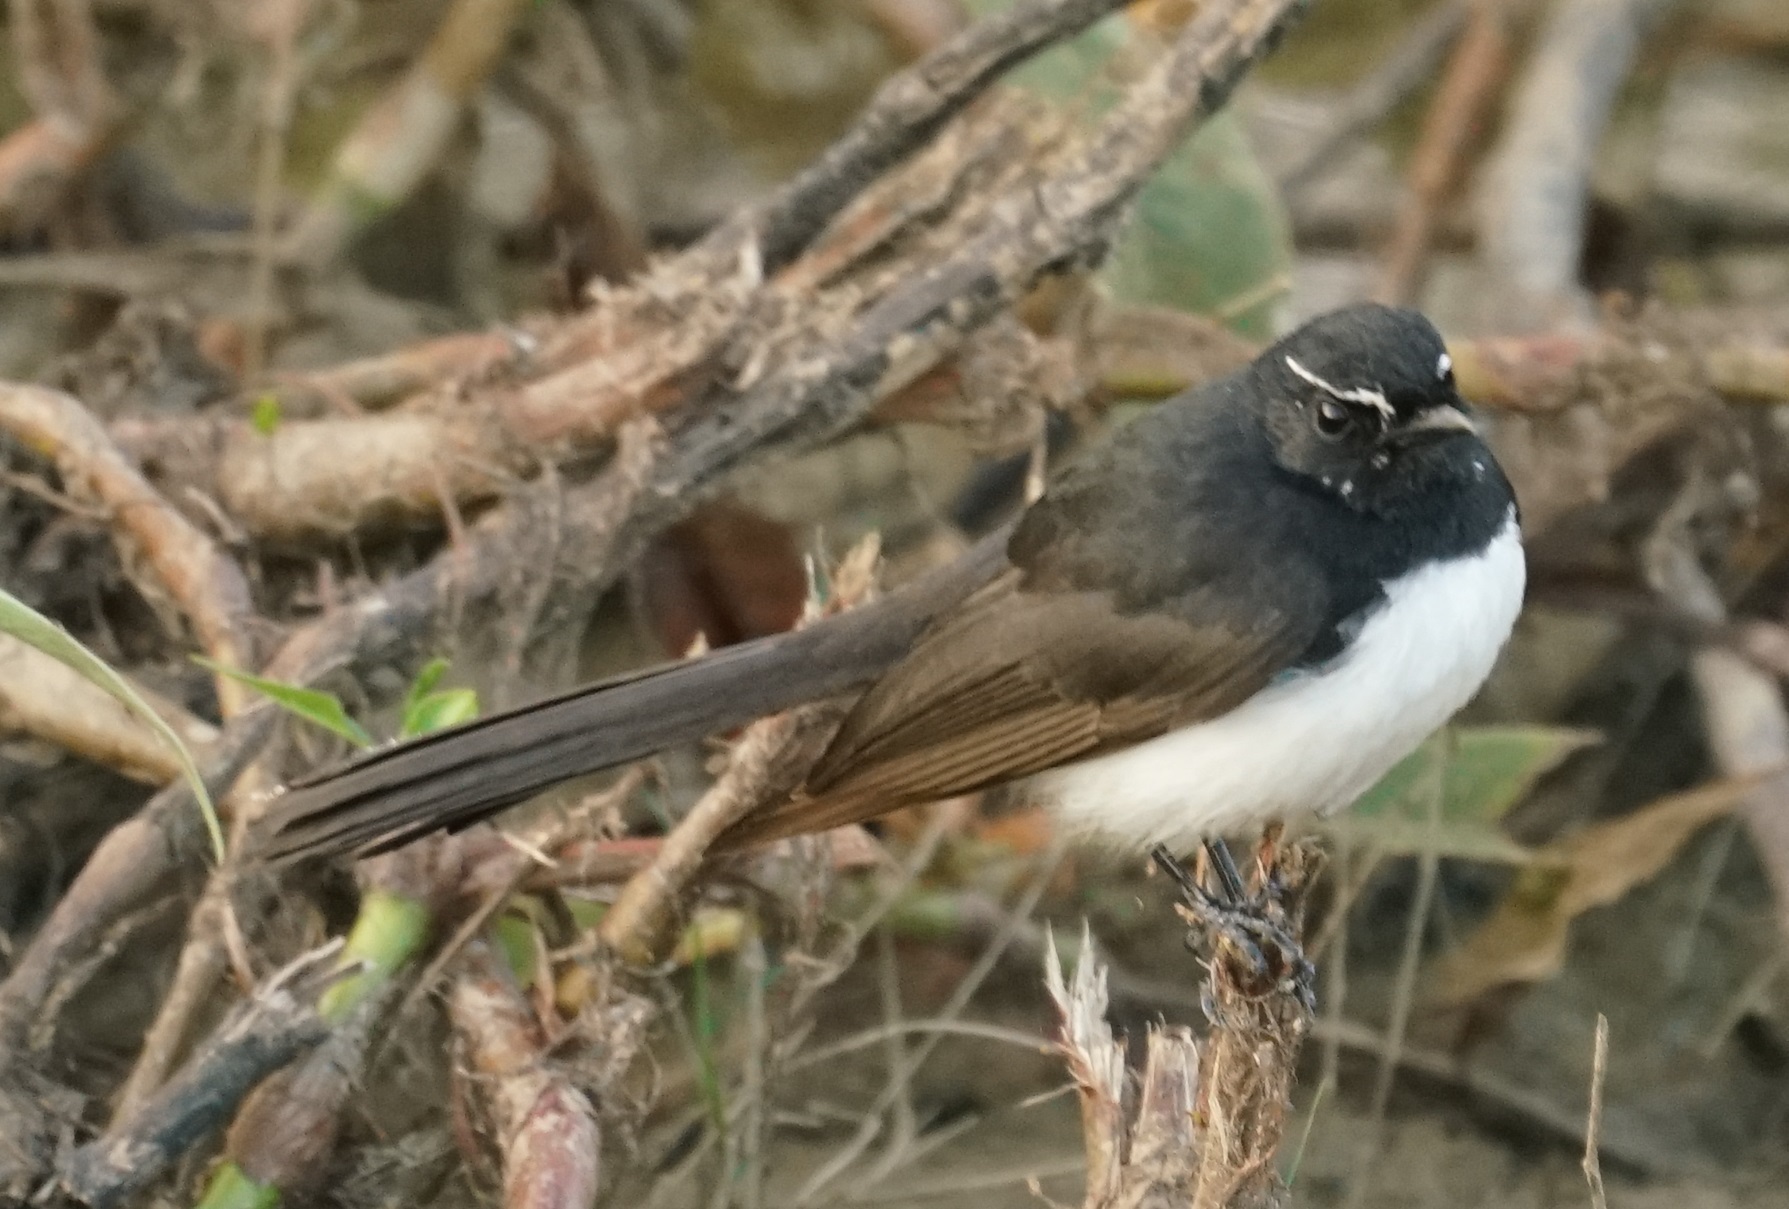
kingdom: Animalia
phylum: Chordata
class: Aves
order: Passeriformes
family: Rhipiduridae
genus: Rhipidura
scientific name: Rhipidura leucophrys
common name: Willie wagtail
